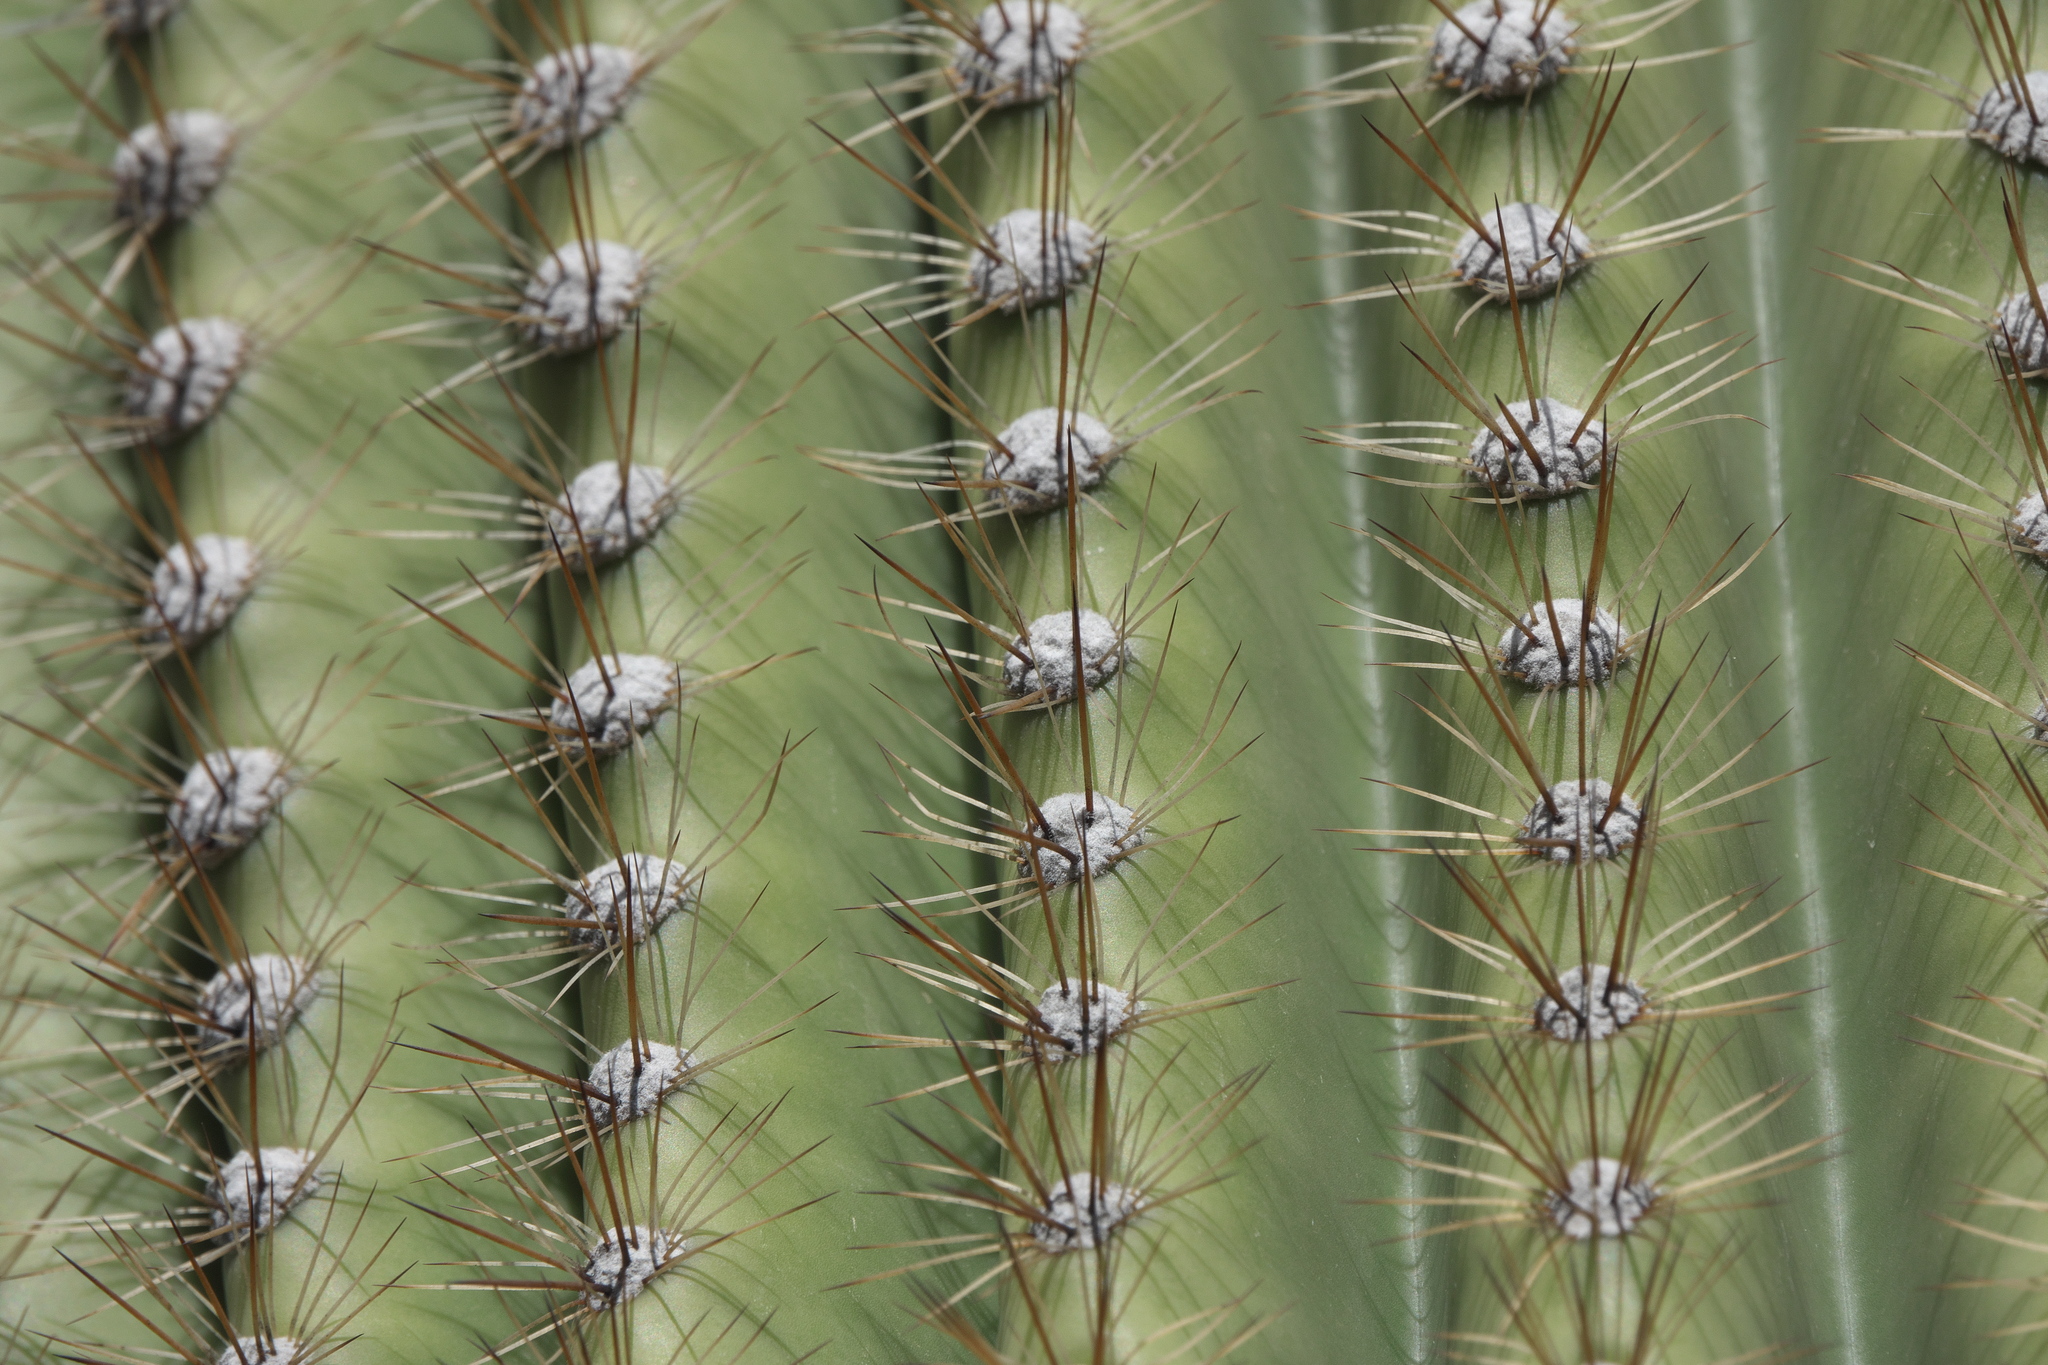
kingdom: Plantae
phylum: Tracheophyta
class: Magnoliopsida
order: Caryophyllales
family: Cactaceae
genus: Carnegiea
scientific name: Carnegiea gigantea
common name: Saguaro
